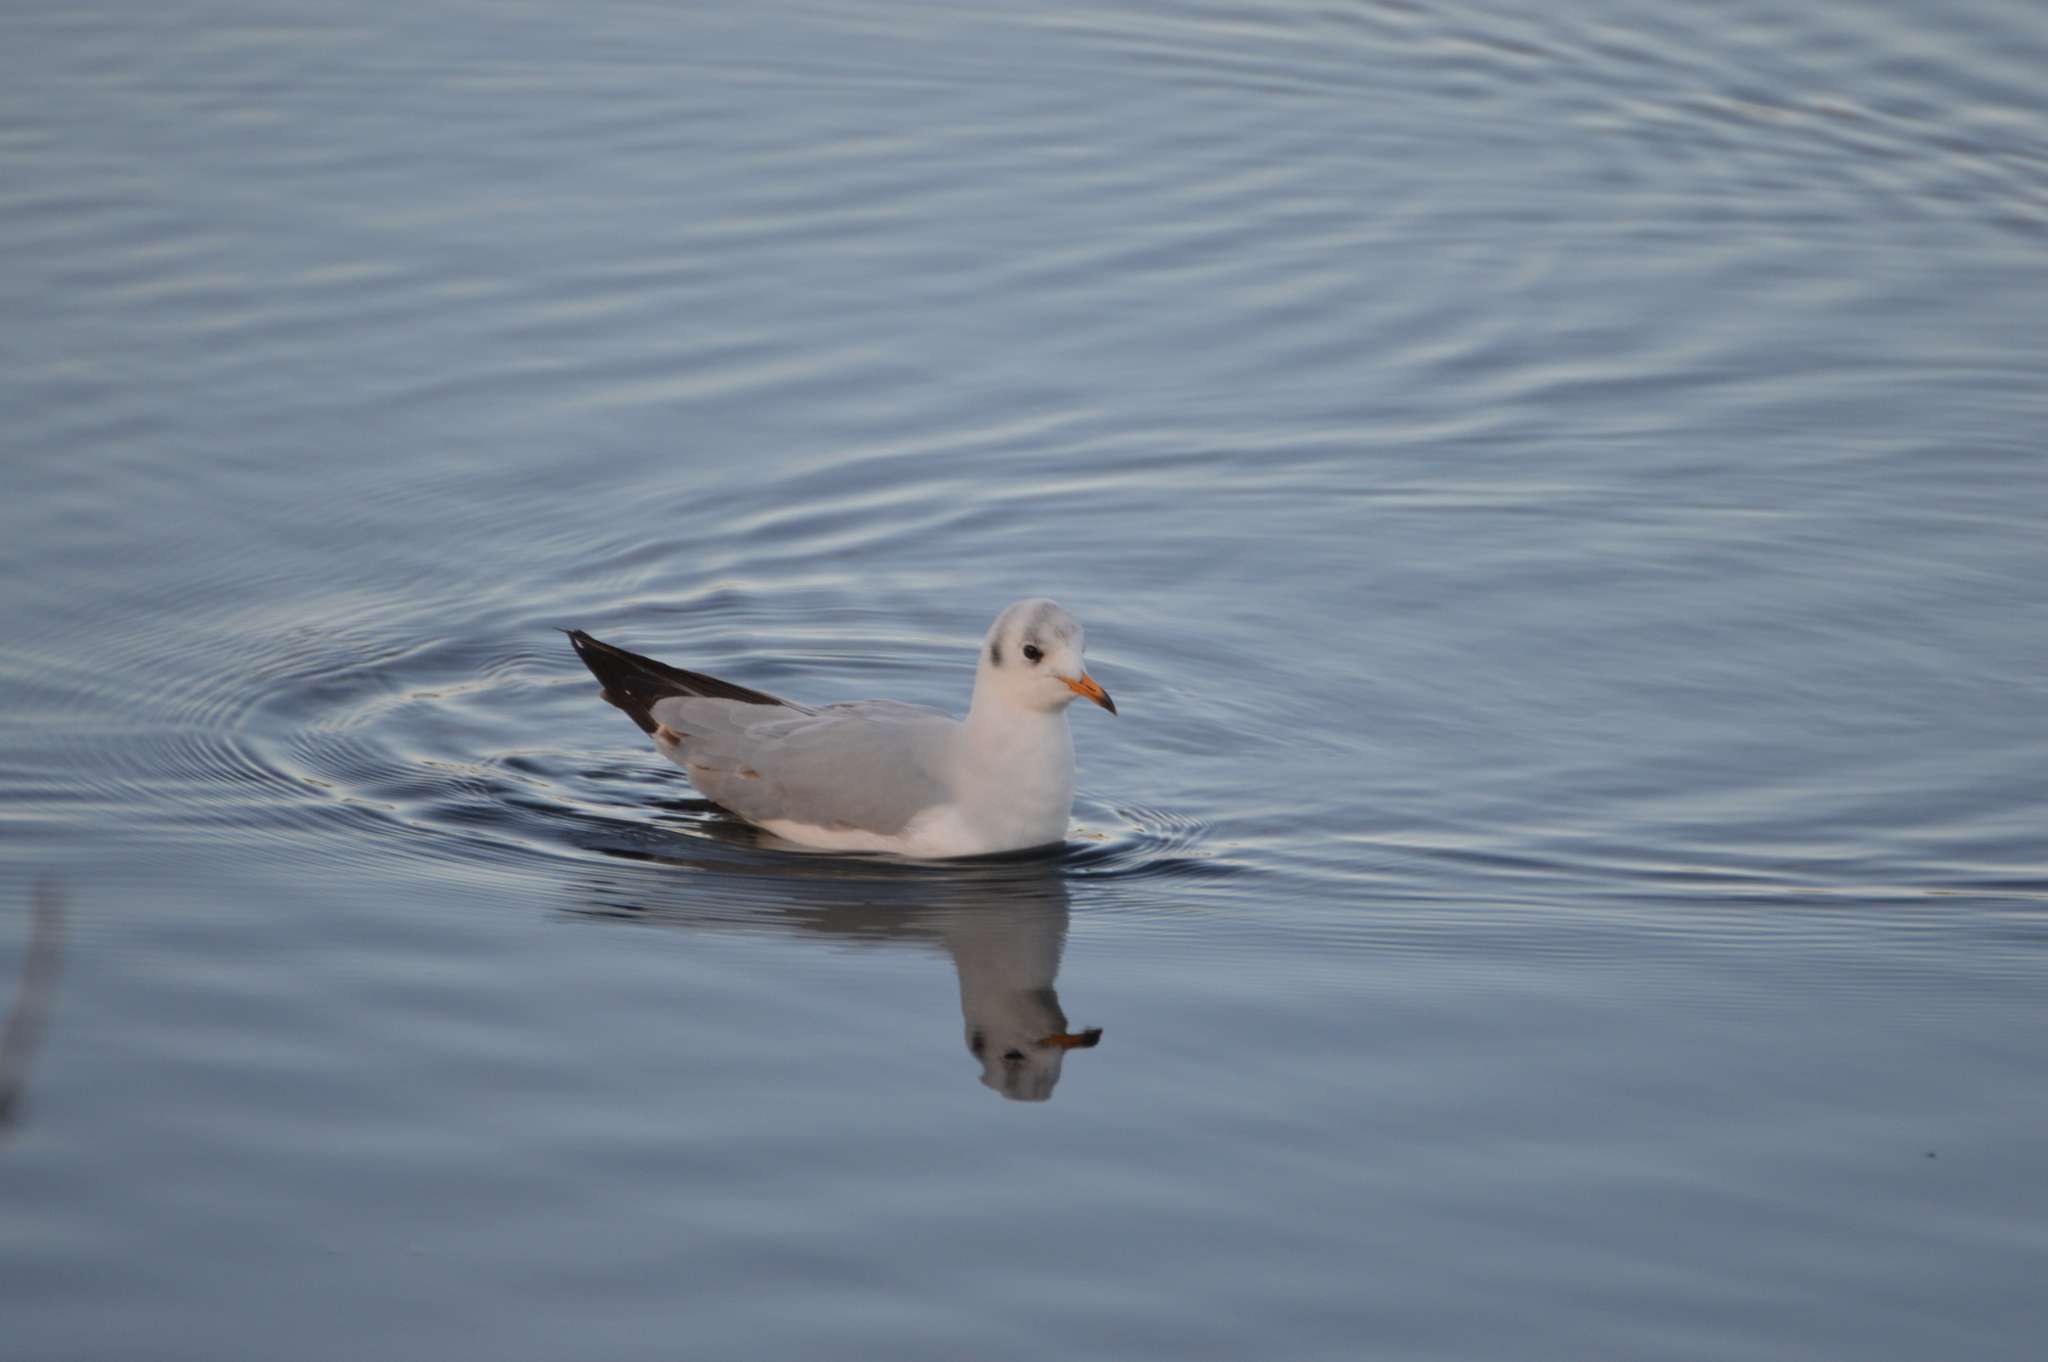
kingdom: Animalia
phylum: Chordata
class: Aves
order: Charadriiformes
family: Laridae
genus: Chroicocephalus
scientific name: Chroicocephalus ridibundus
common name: Black-headed gull
